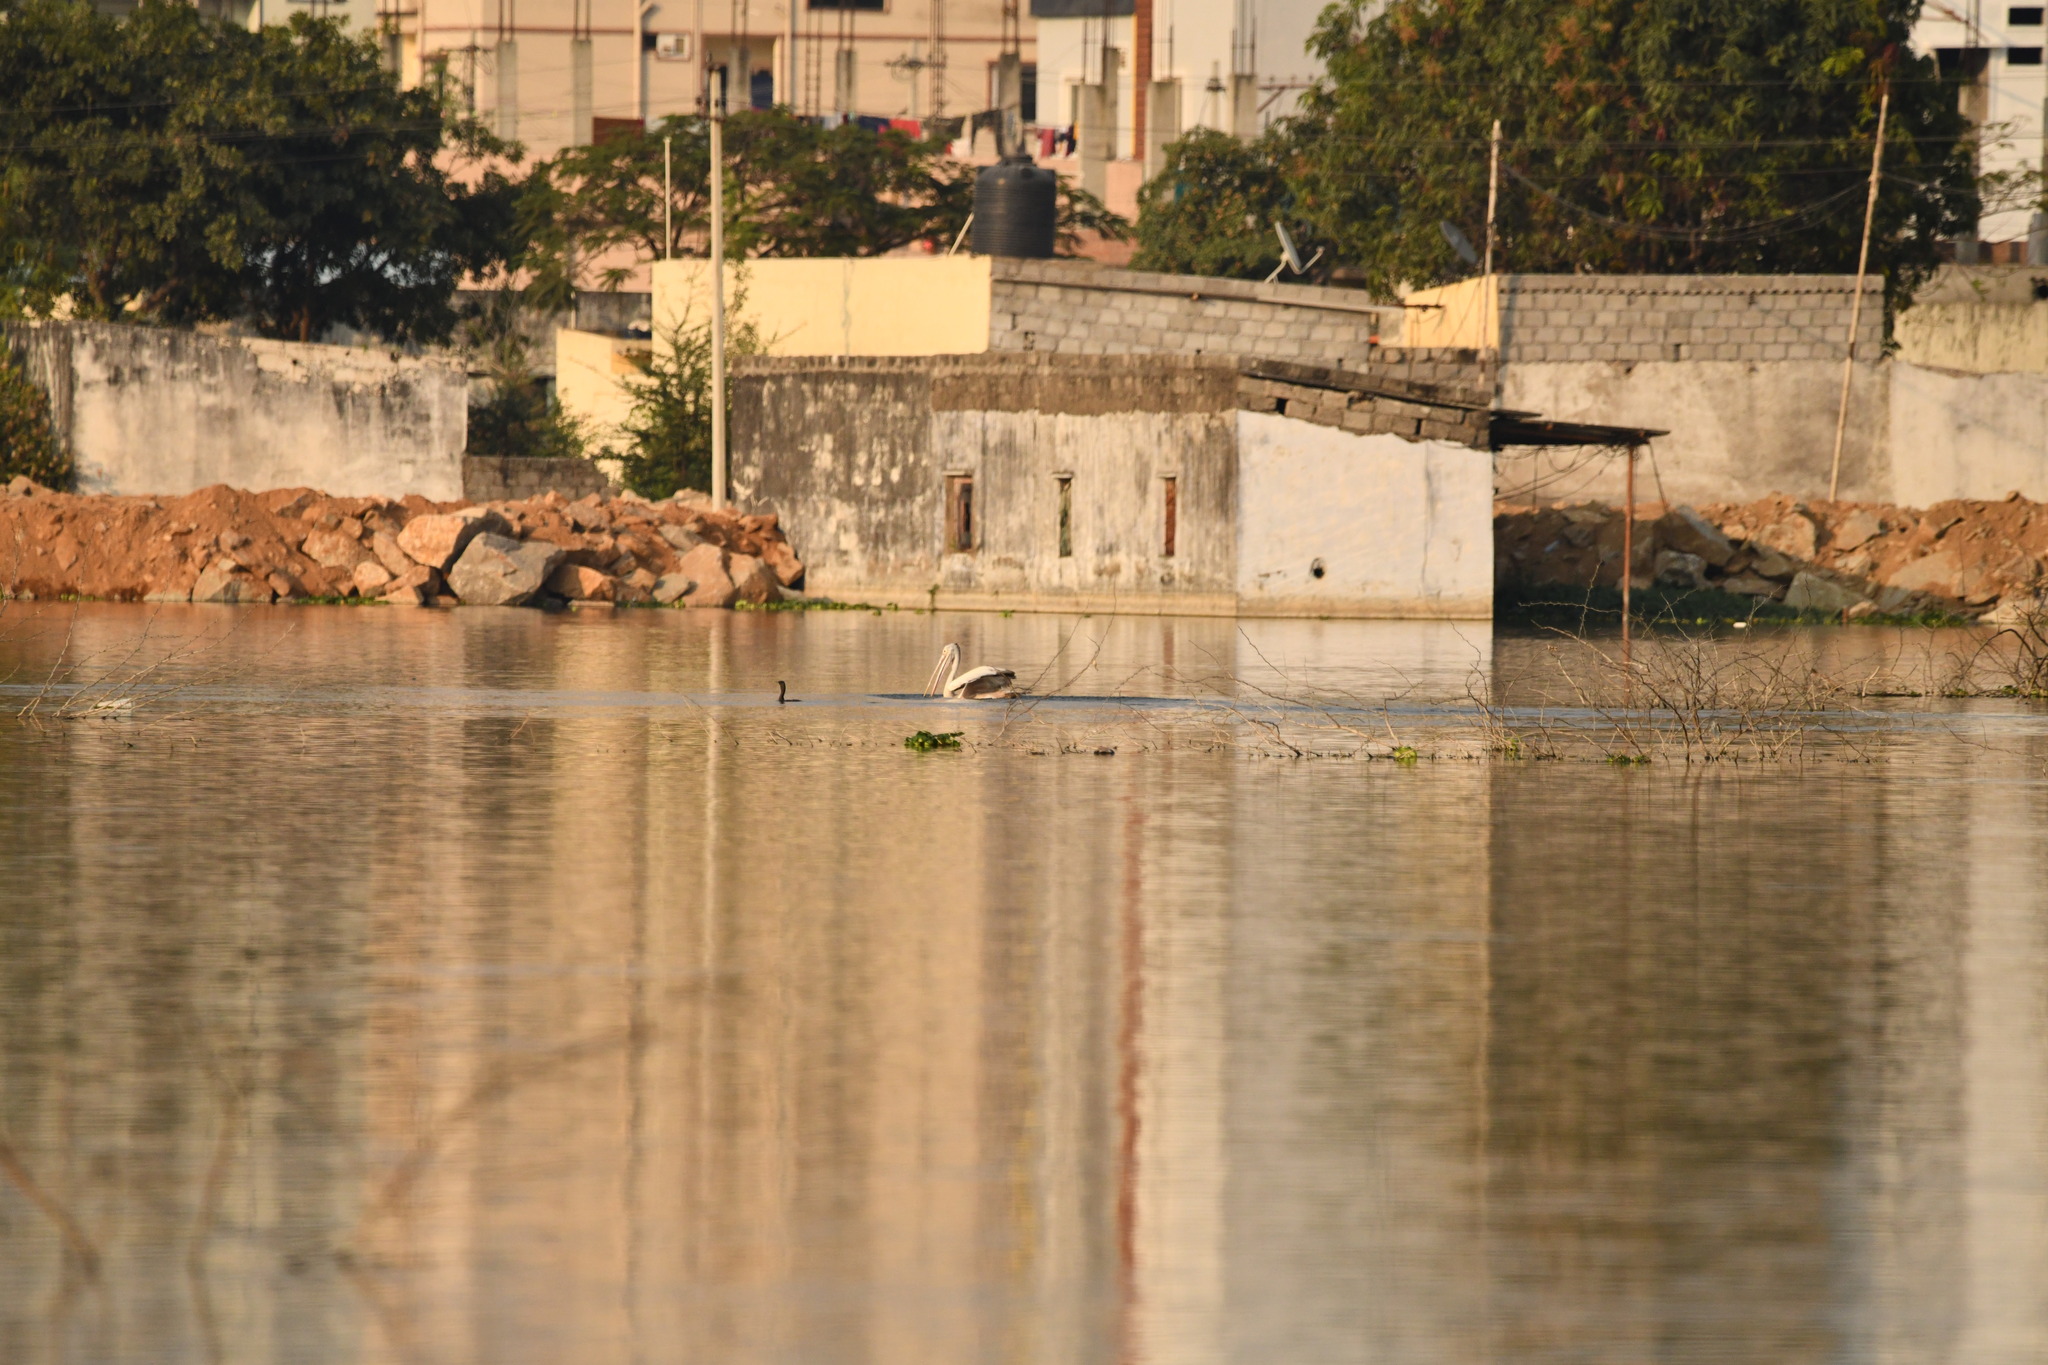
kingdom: Animalia
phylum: Chordata
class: Aves
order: Pelecaniformes
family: Pelecanidae
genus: Pelecanus
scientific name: Pelecanus philippensis
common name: Spot-billed pelican
